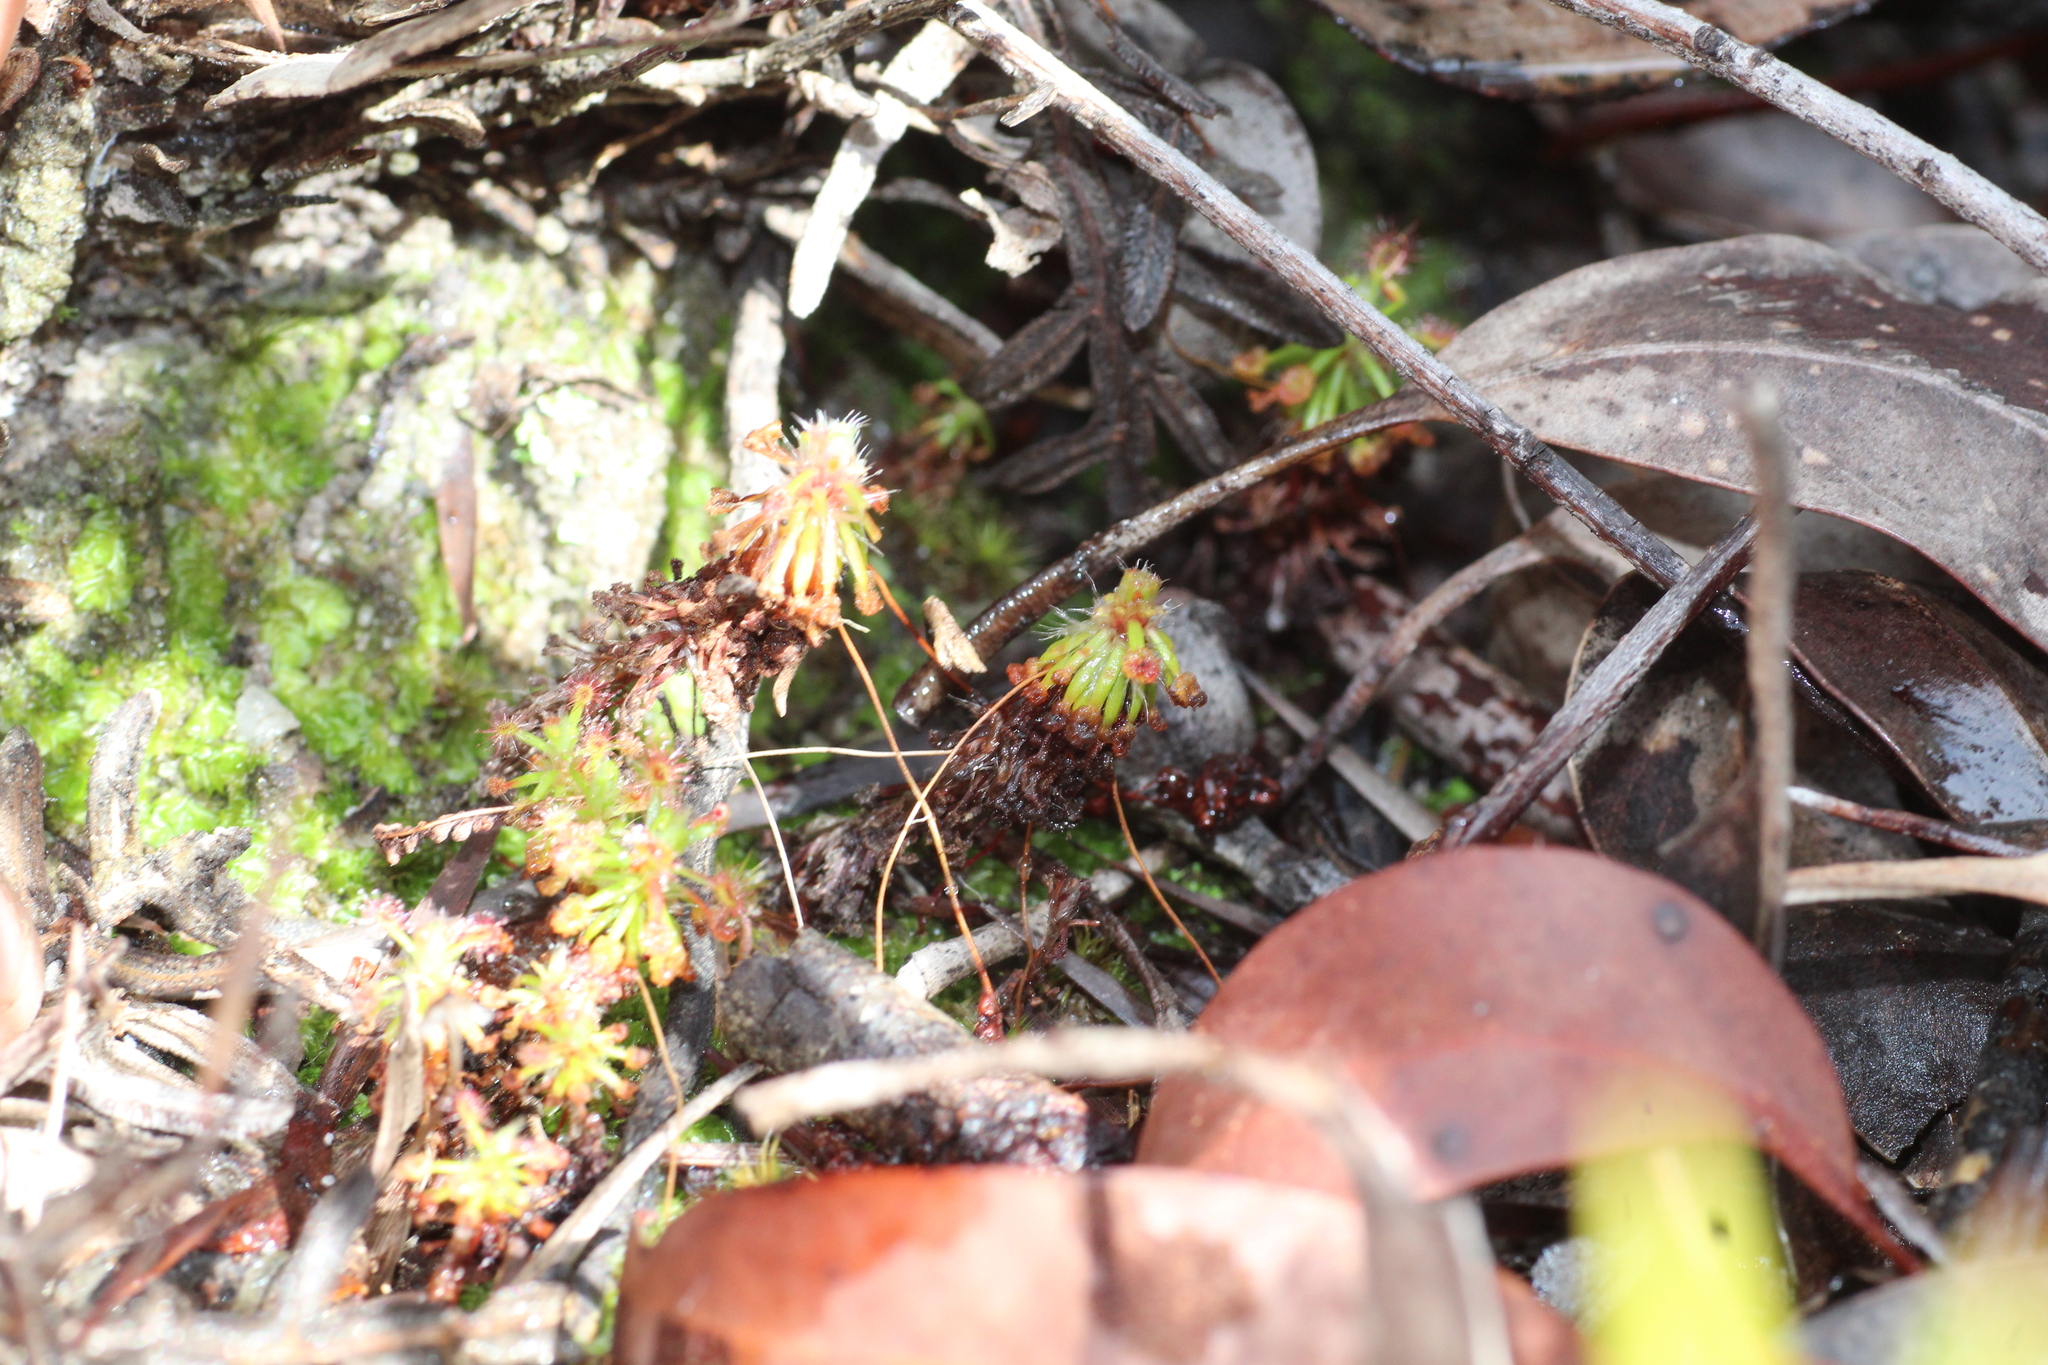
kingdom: Plantae
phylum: Tracheophyta
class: Magnoliopsida
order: Caryophyllales
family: Droseraceae
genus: Drosera
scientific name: Drosera paleacea
